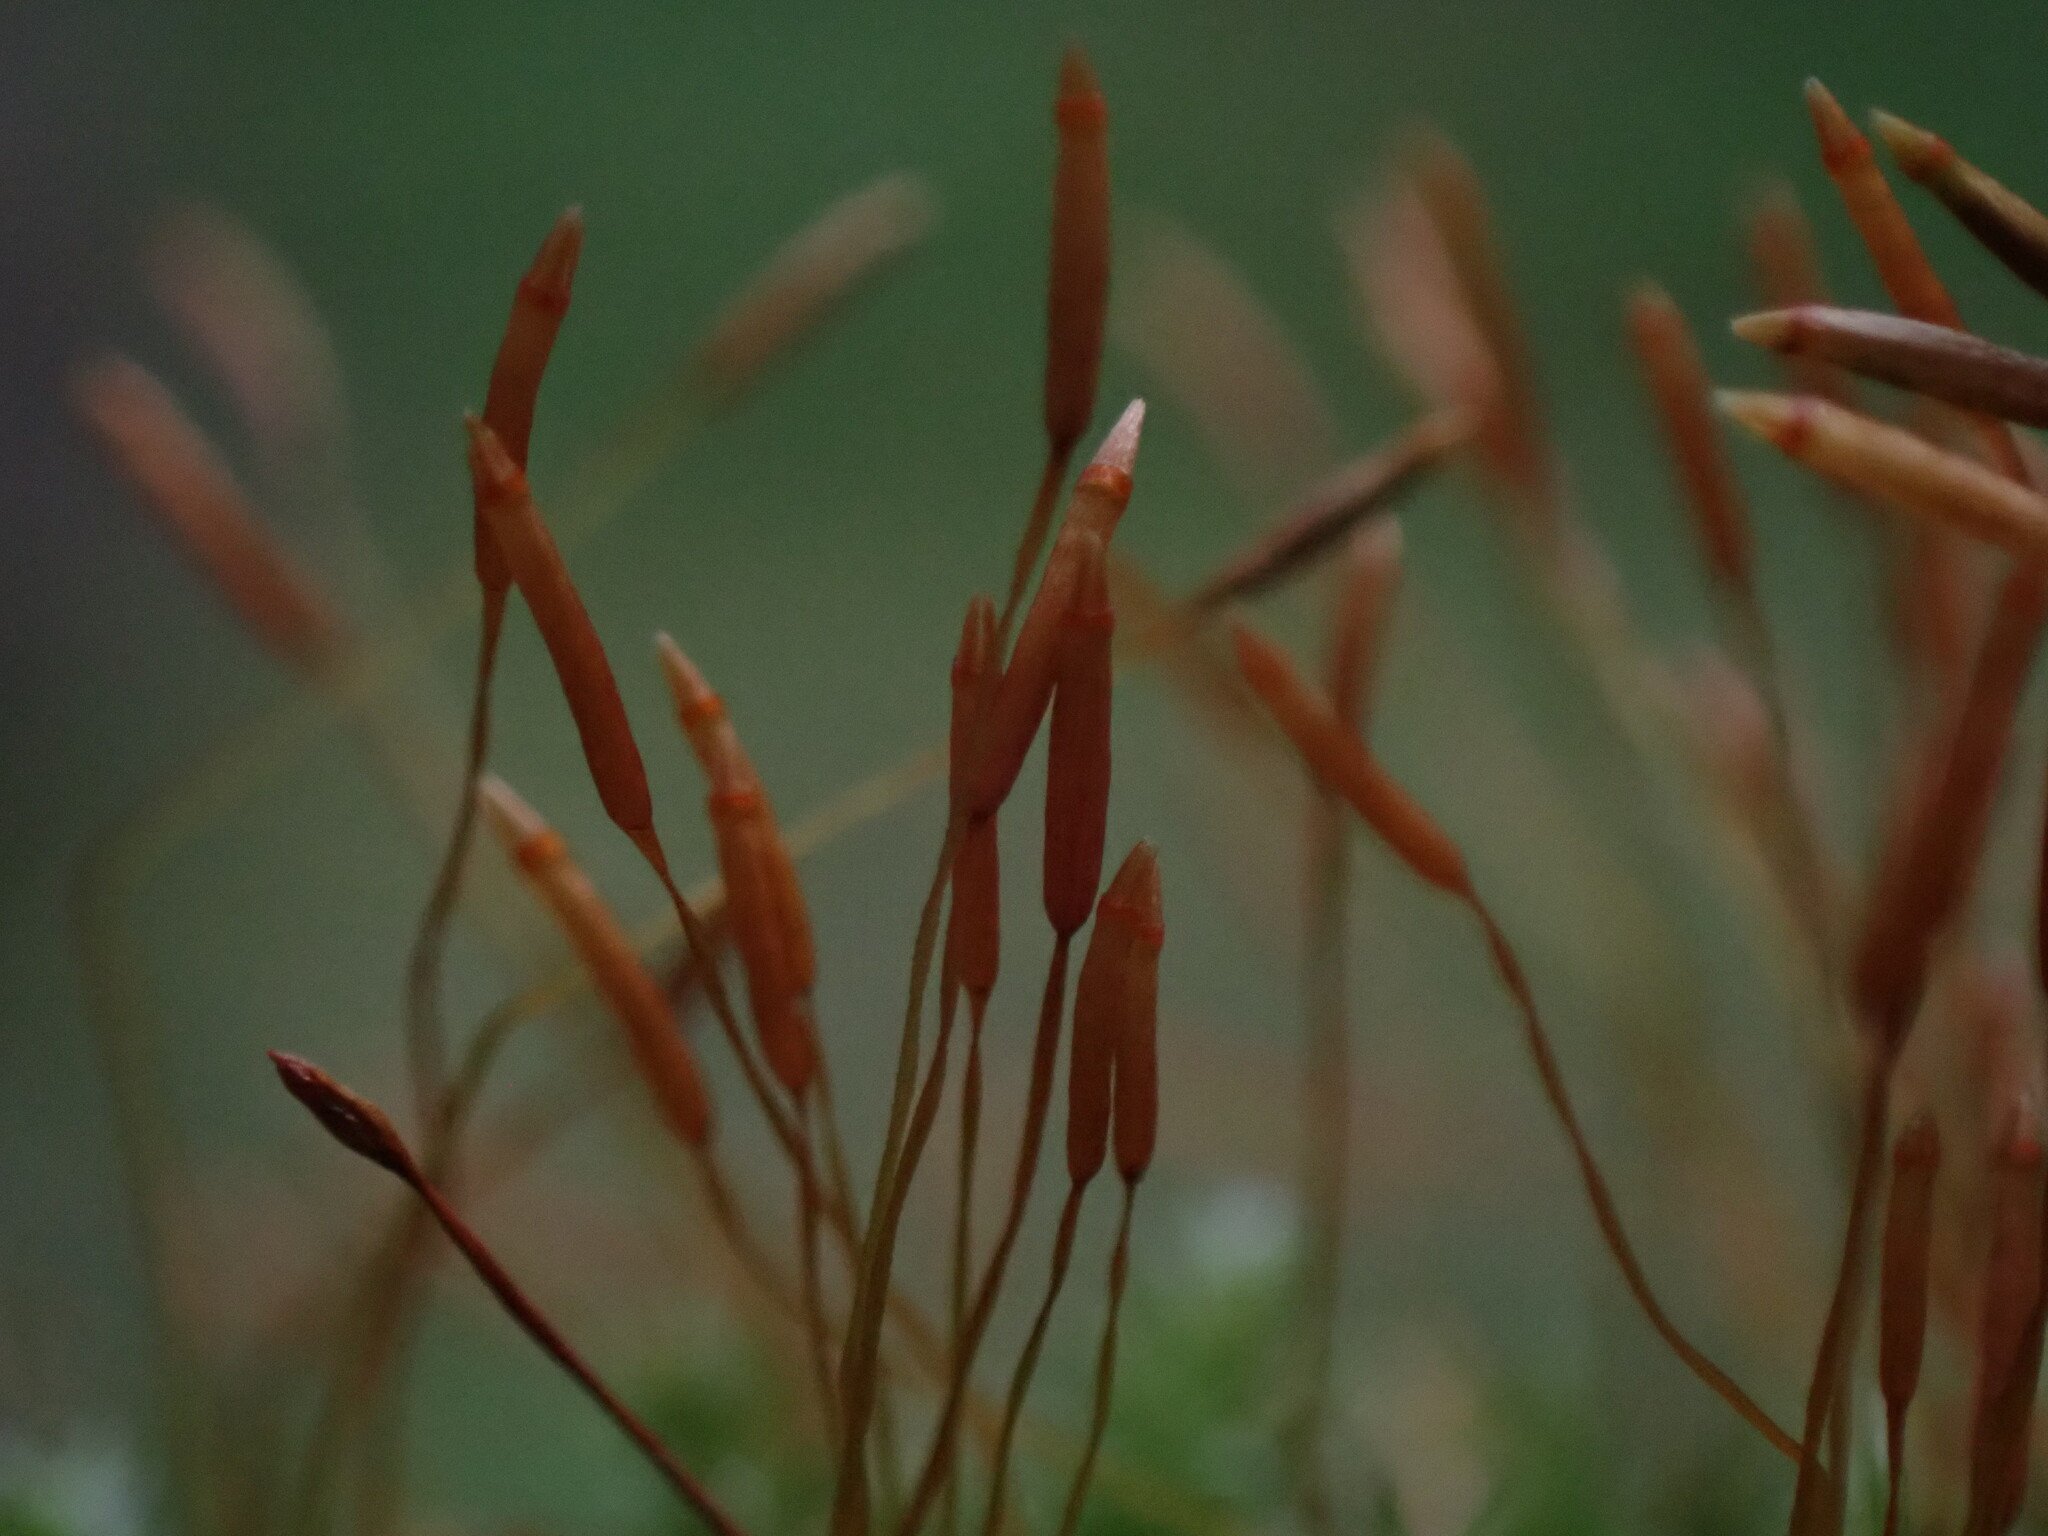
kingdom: Plantae
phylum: Bryophyta
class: Polytrichopsida
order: Tetraphidales
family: Tetraphidaceae
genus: Tetraphis
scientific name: Tetraphis pellucida
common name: Common four-toothed moss
